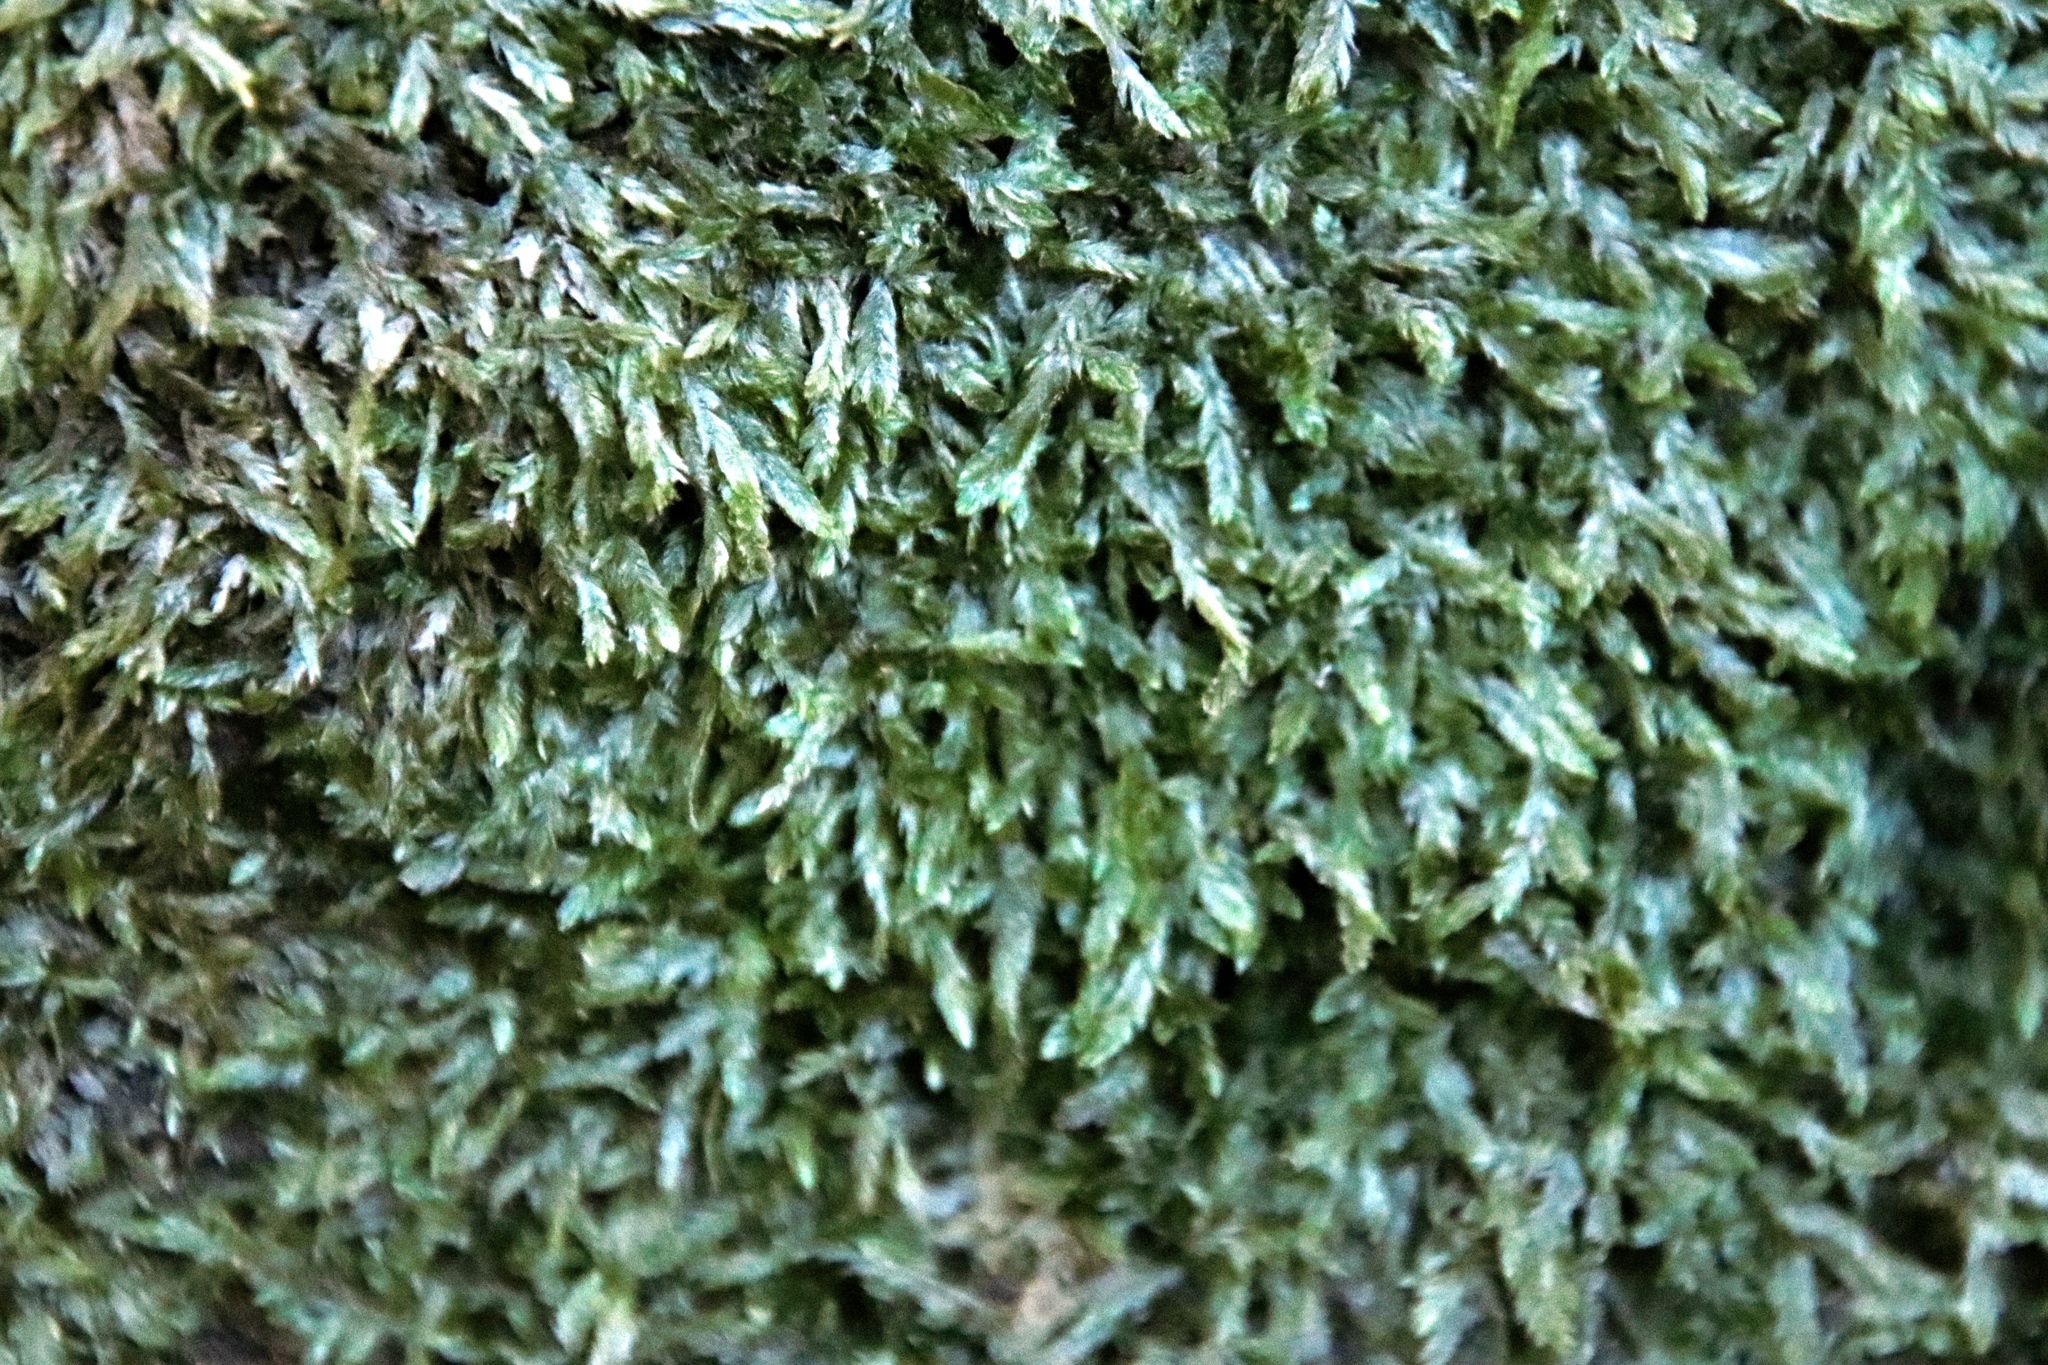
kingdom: Plantae
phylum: Bryophyta
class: Bryopsida
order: Hypnales
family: Catagoniaceae
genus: Catagonium
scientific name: Catagonium nitens
